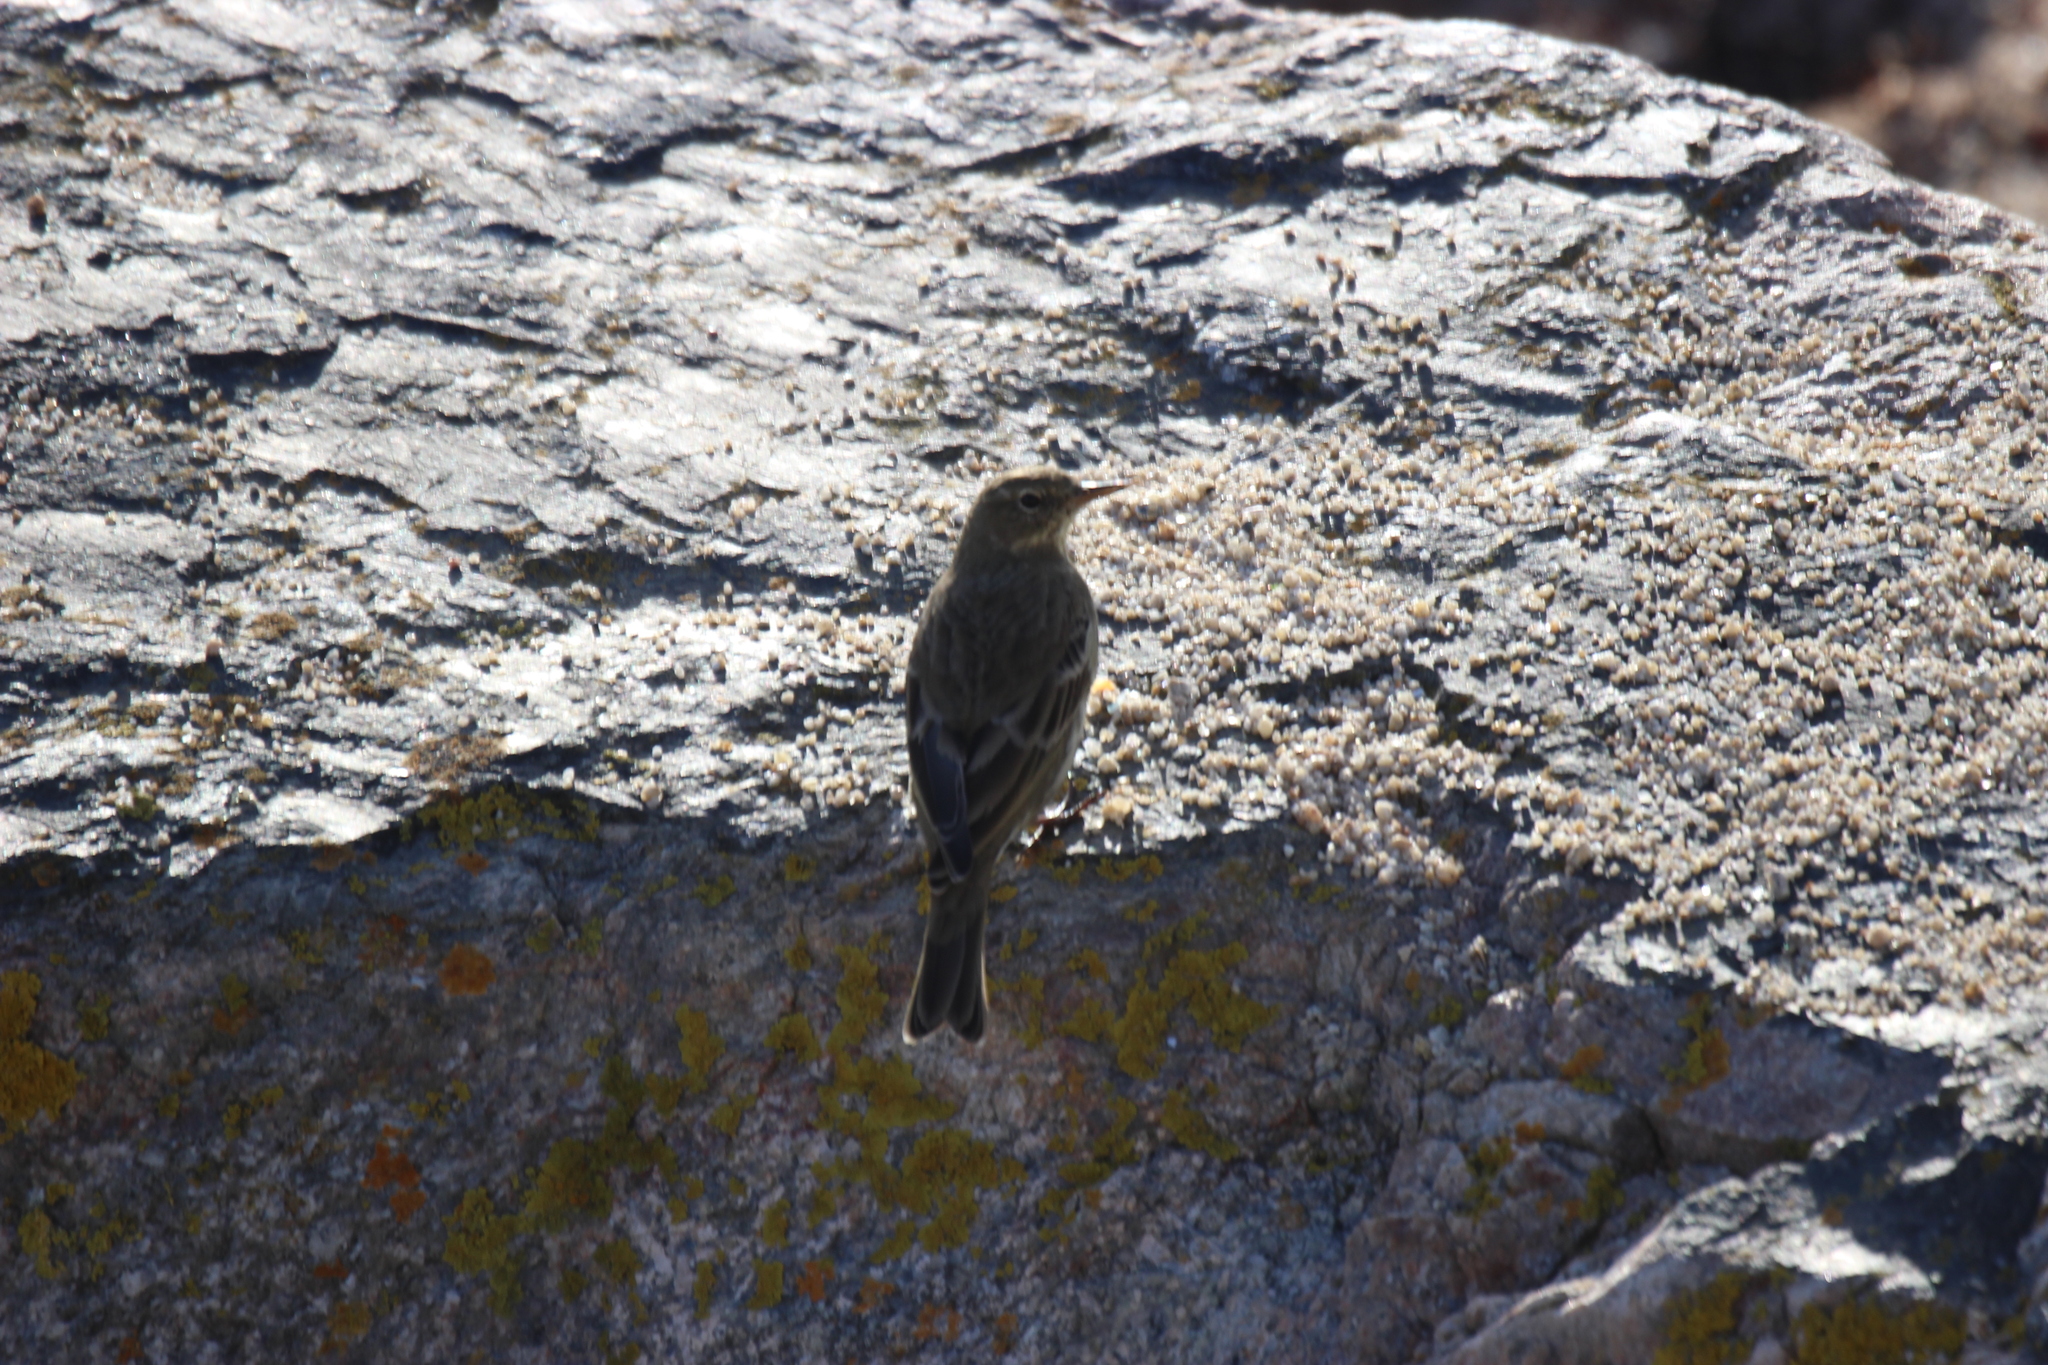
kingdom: Animalia
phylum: Chordata
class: Aves
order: Passeriformes
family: Motacillidae
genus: Anthus
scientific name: Anthus petrosus
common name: Eurasian rock pipit
